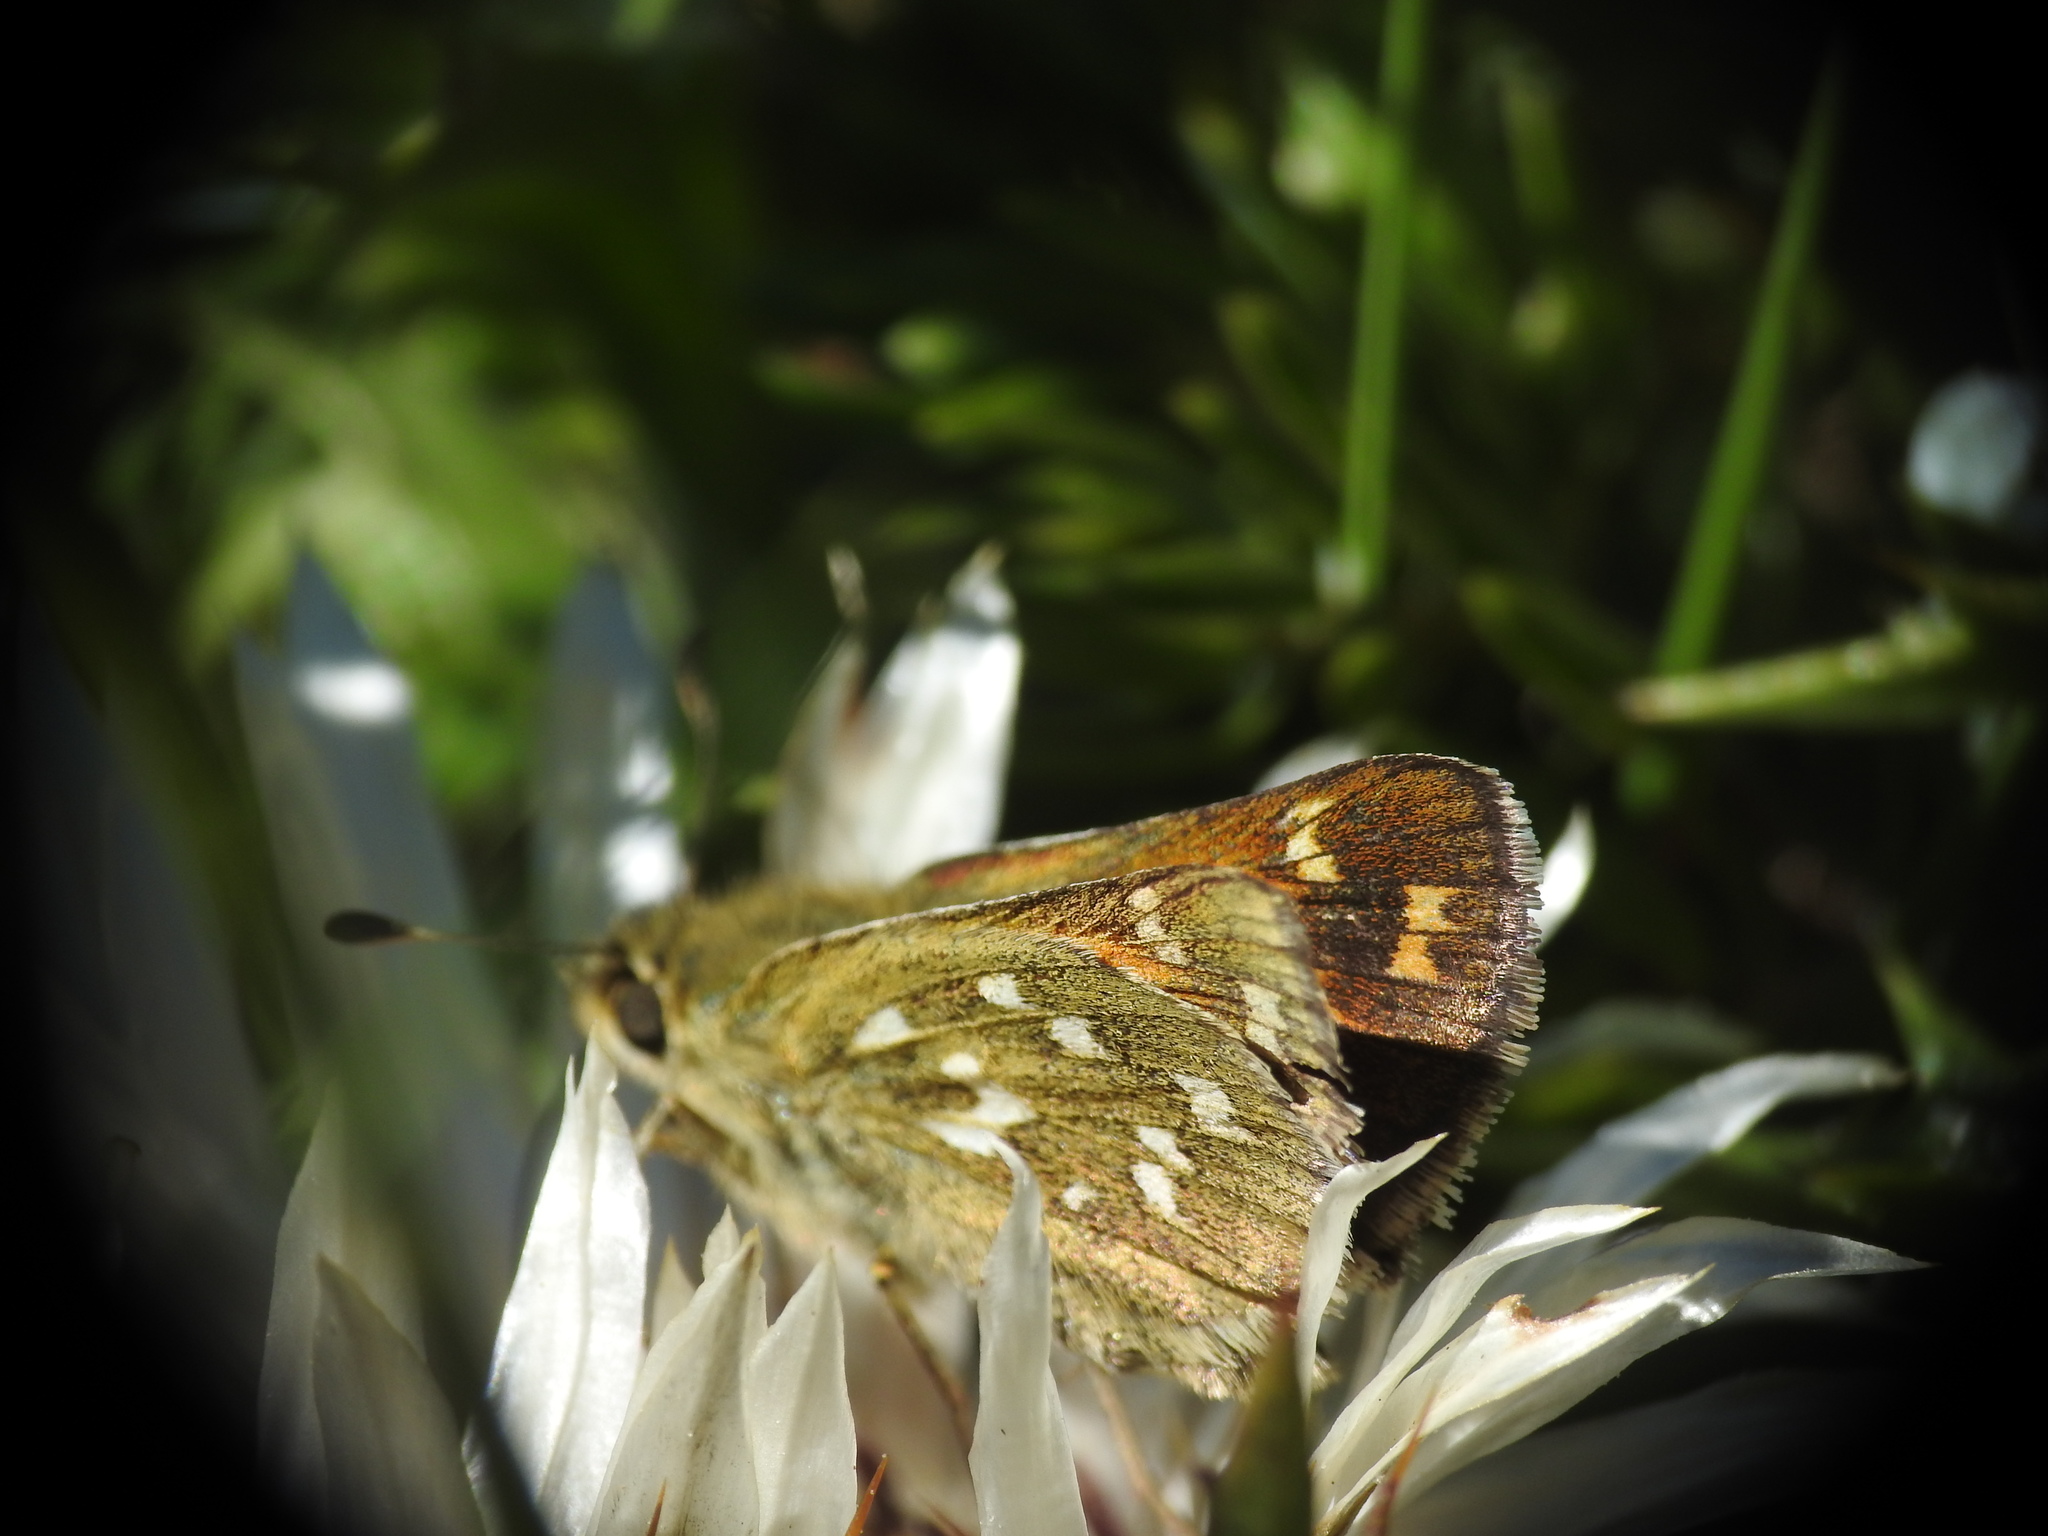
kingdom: Animalia
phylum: Arthropoda
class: Insecta
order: Lepidoptera
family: Hesperiidae
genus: Hesperia
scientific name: Hesperia comma
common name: Common branded skipper
